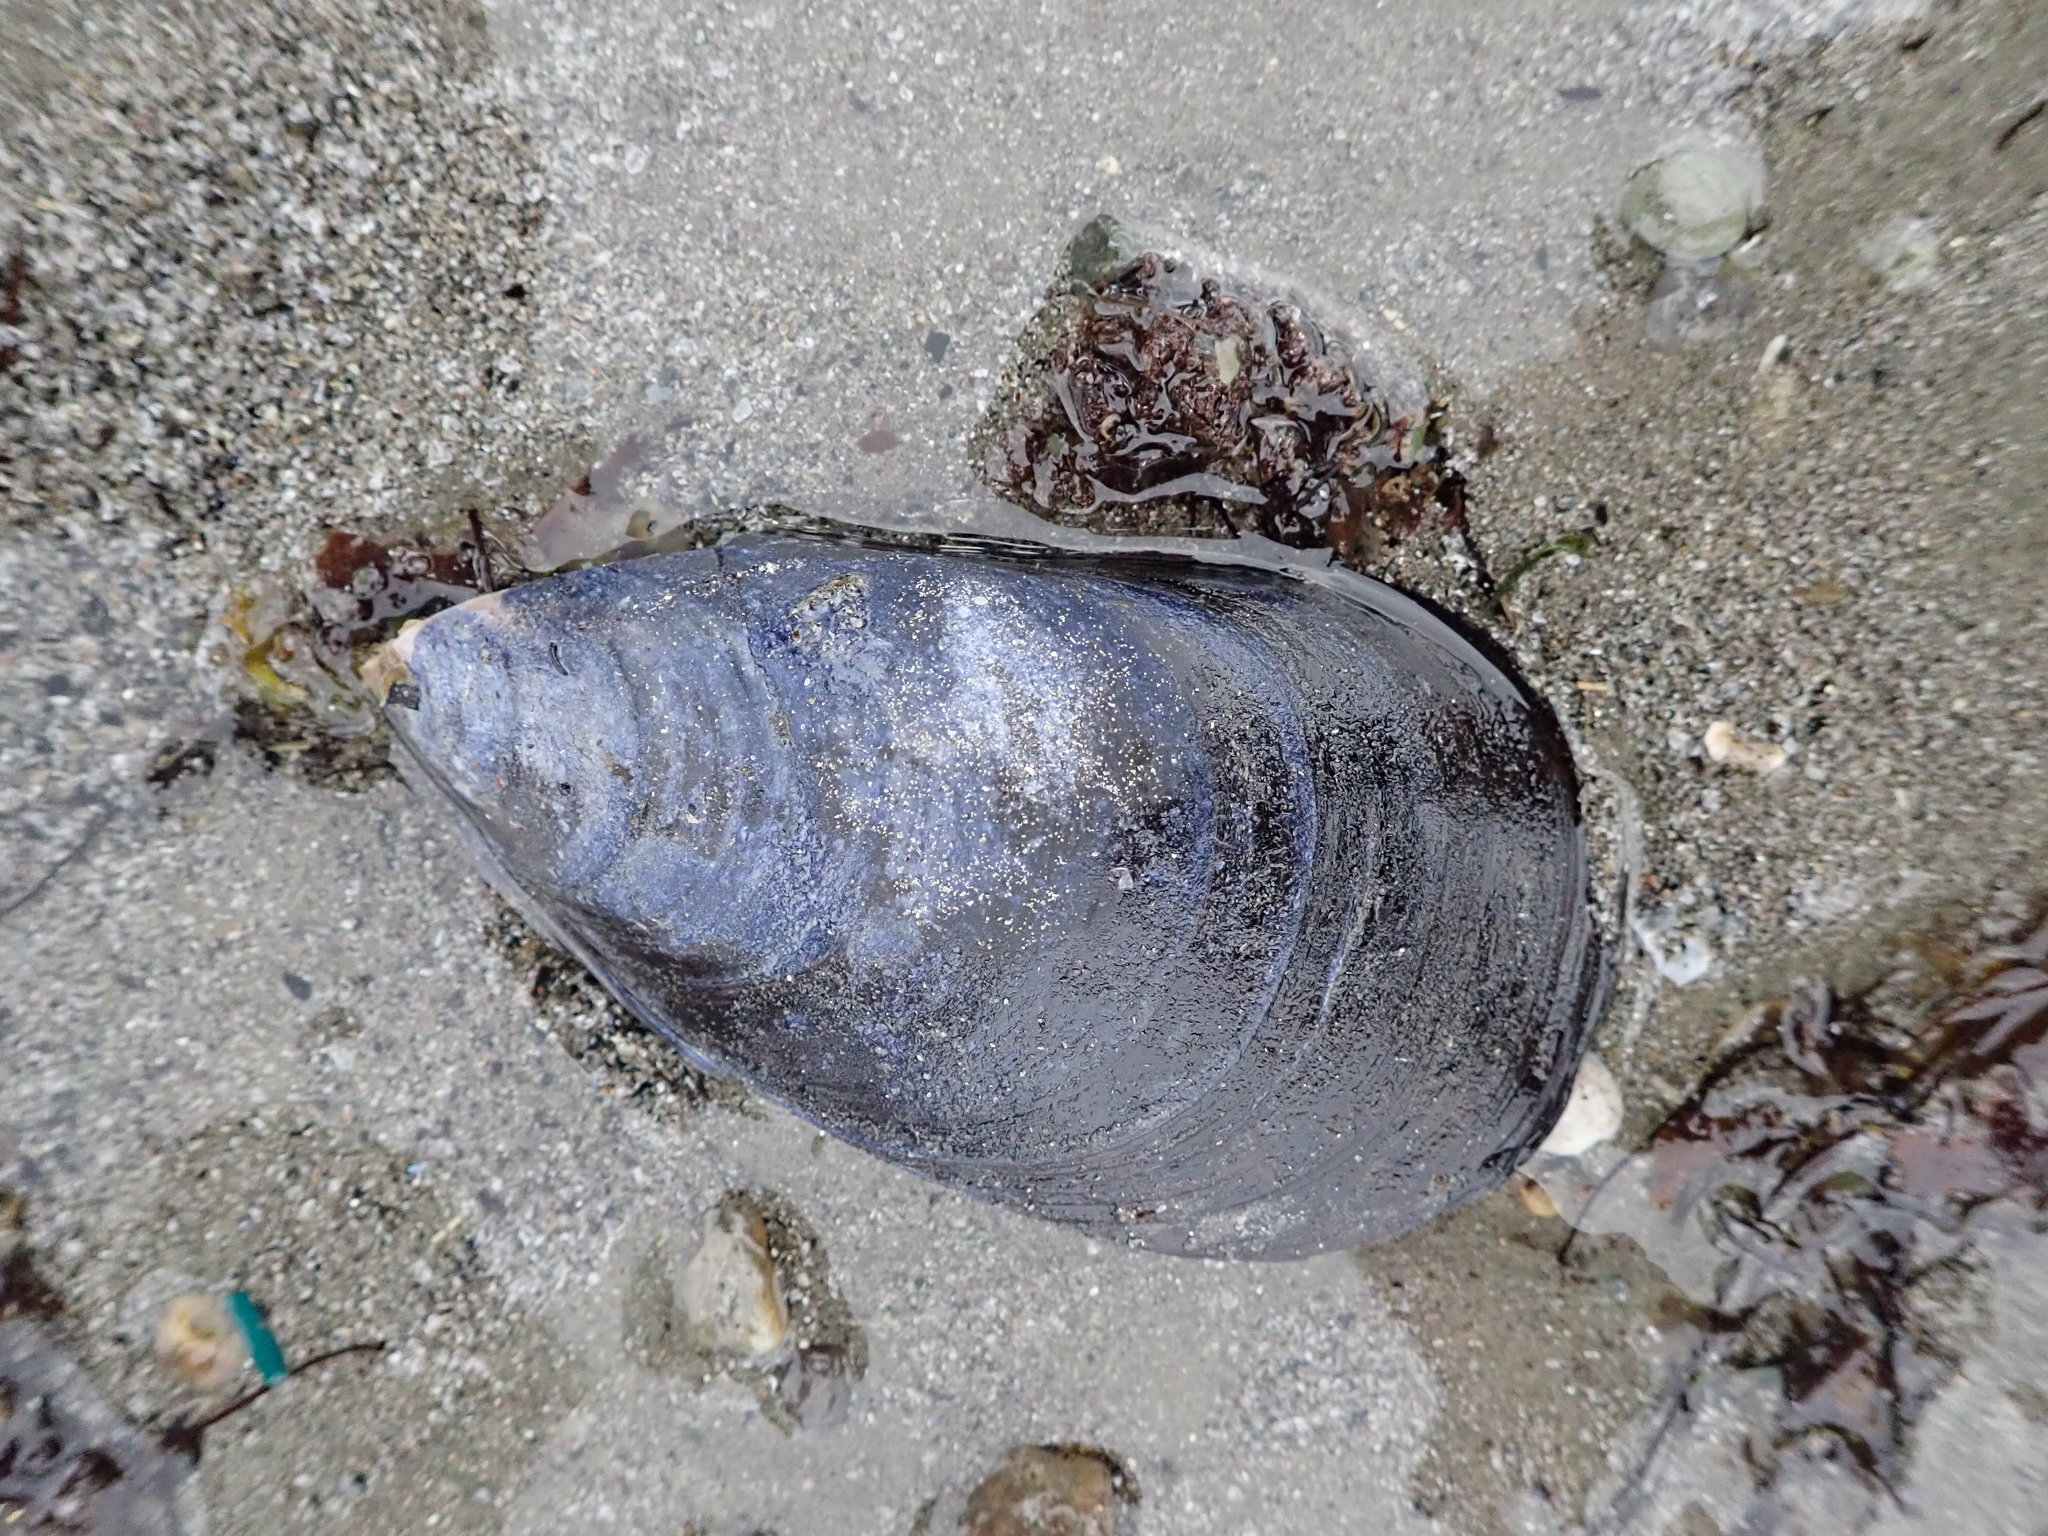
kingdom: Animalia
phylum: Mollusca
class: Bivalvia
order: Mytilida
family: Mytilidae
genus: Mytilus
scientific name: Mytilus edulis
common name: Blue mussel
